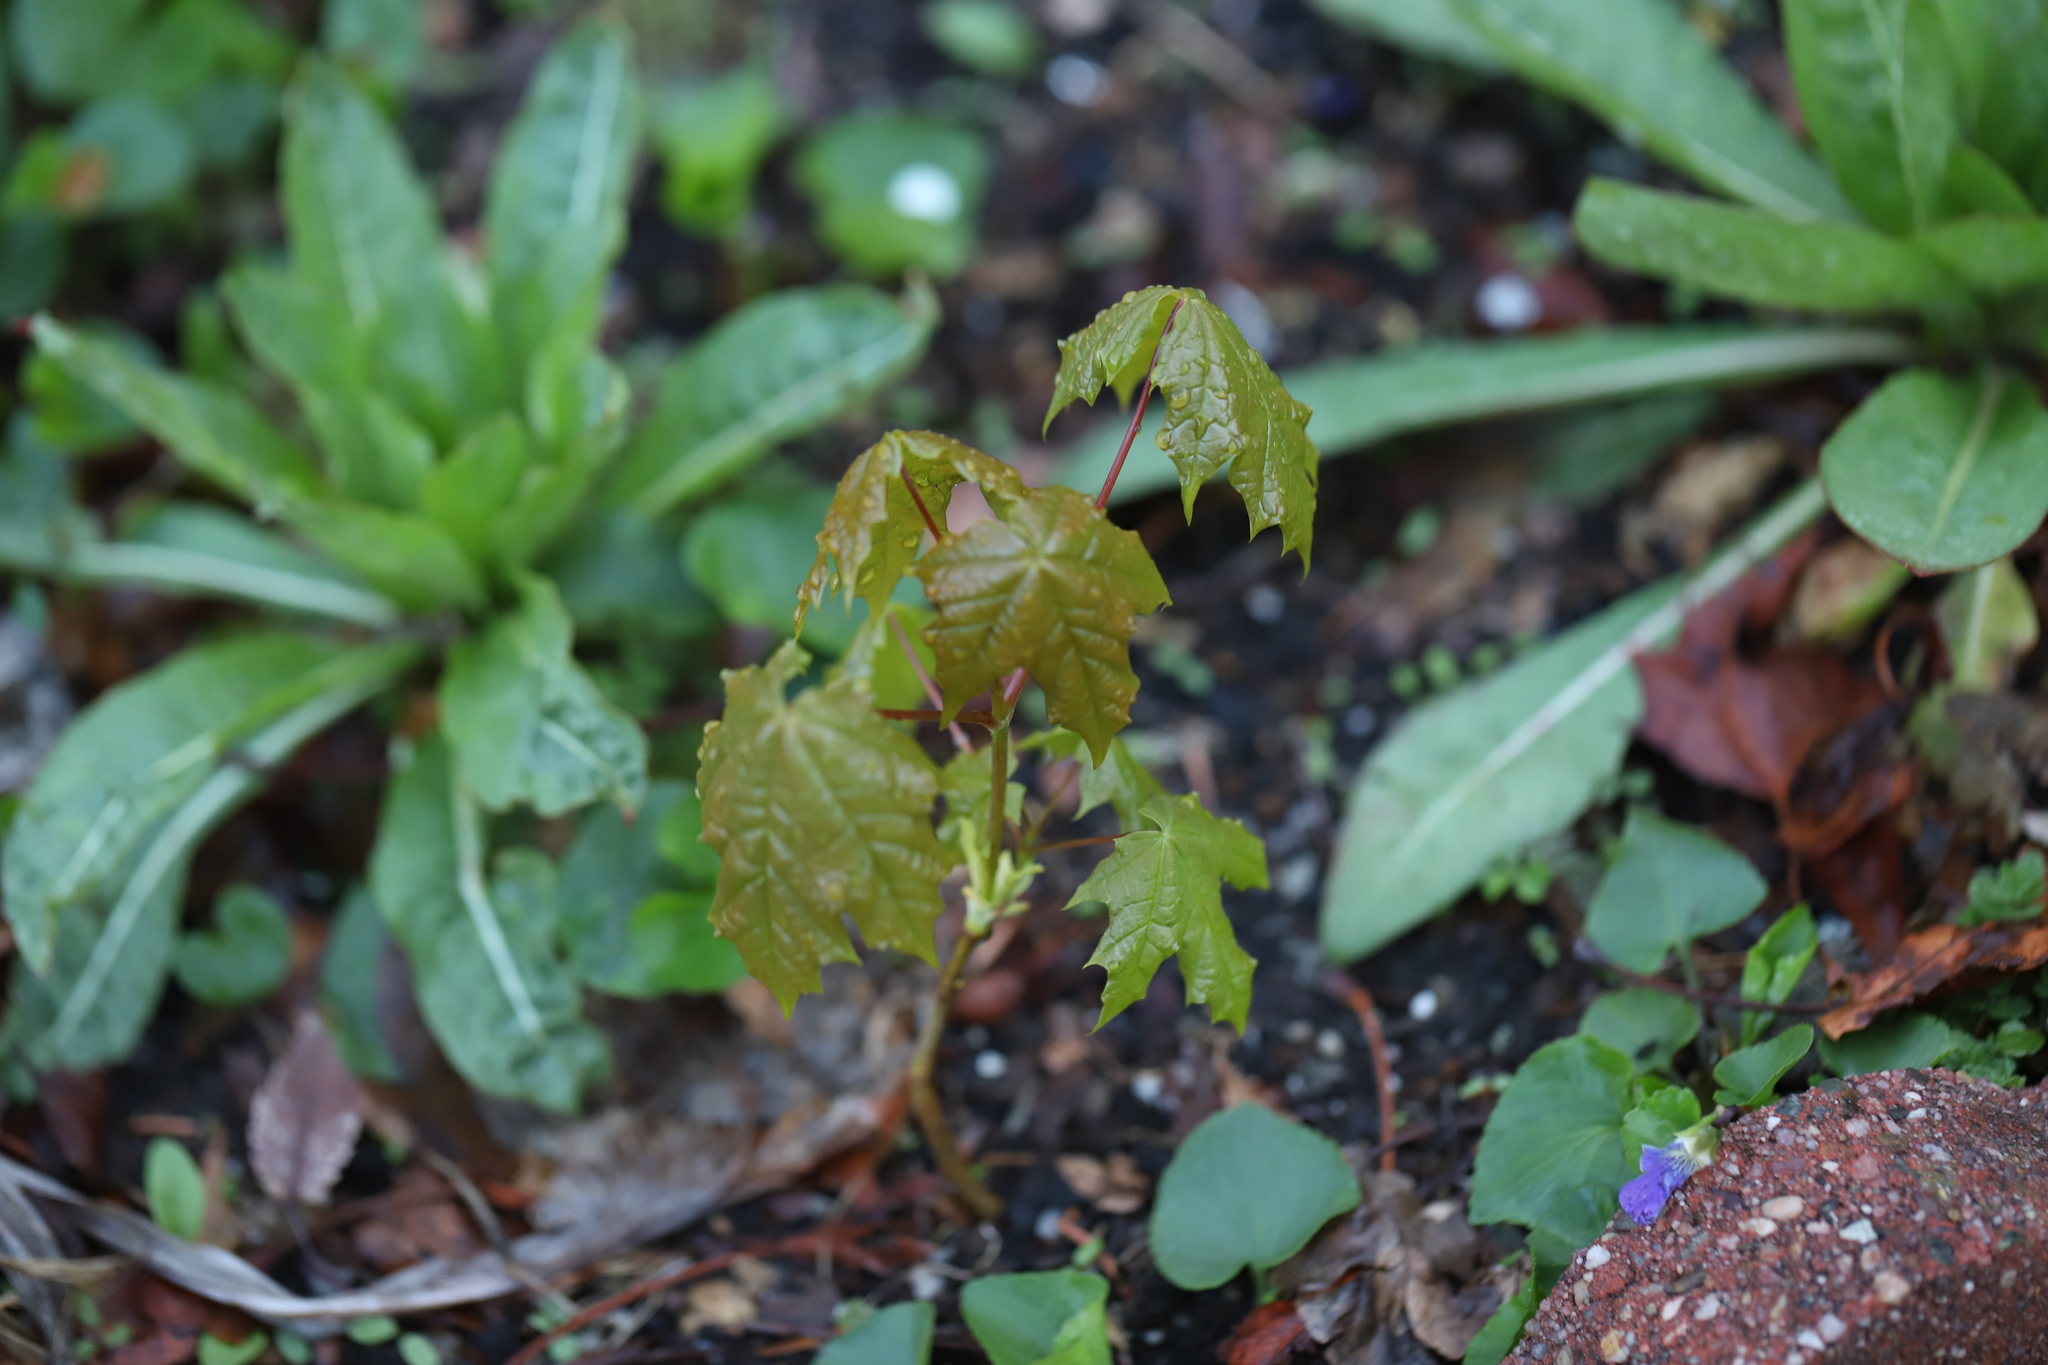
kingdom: Plantae
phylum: Tracheophyta
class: Magnoliopsida
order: Sapindales
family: Sapindaceae
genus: Acer
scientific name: Acer platanoides
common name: Norway maple
